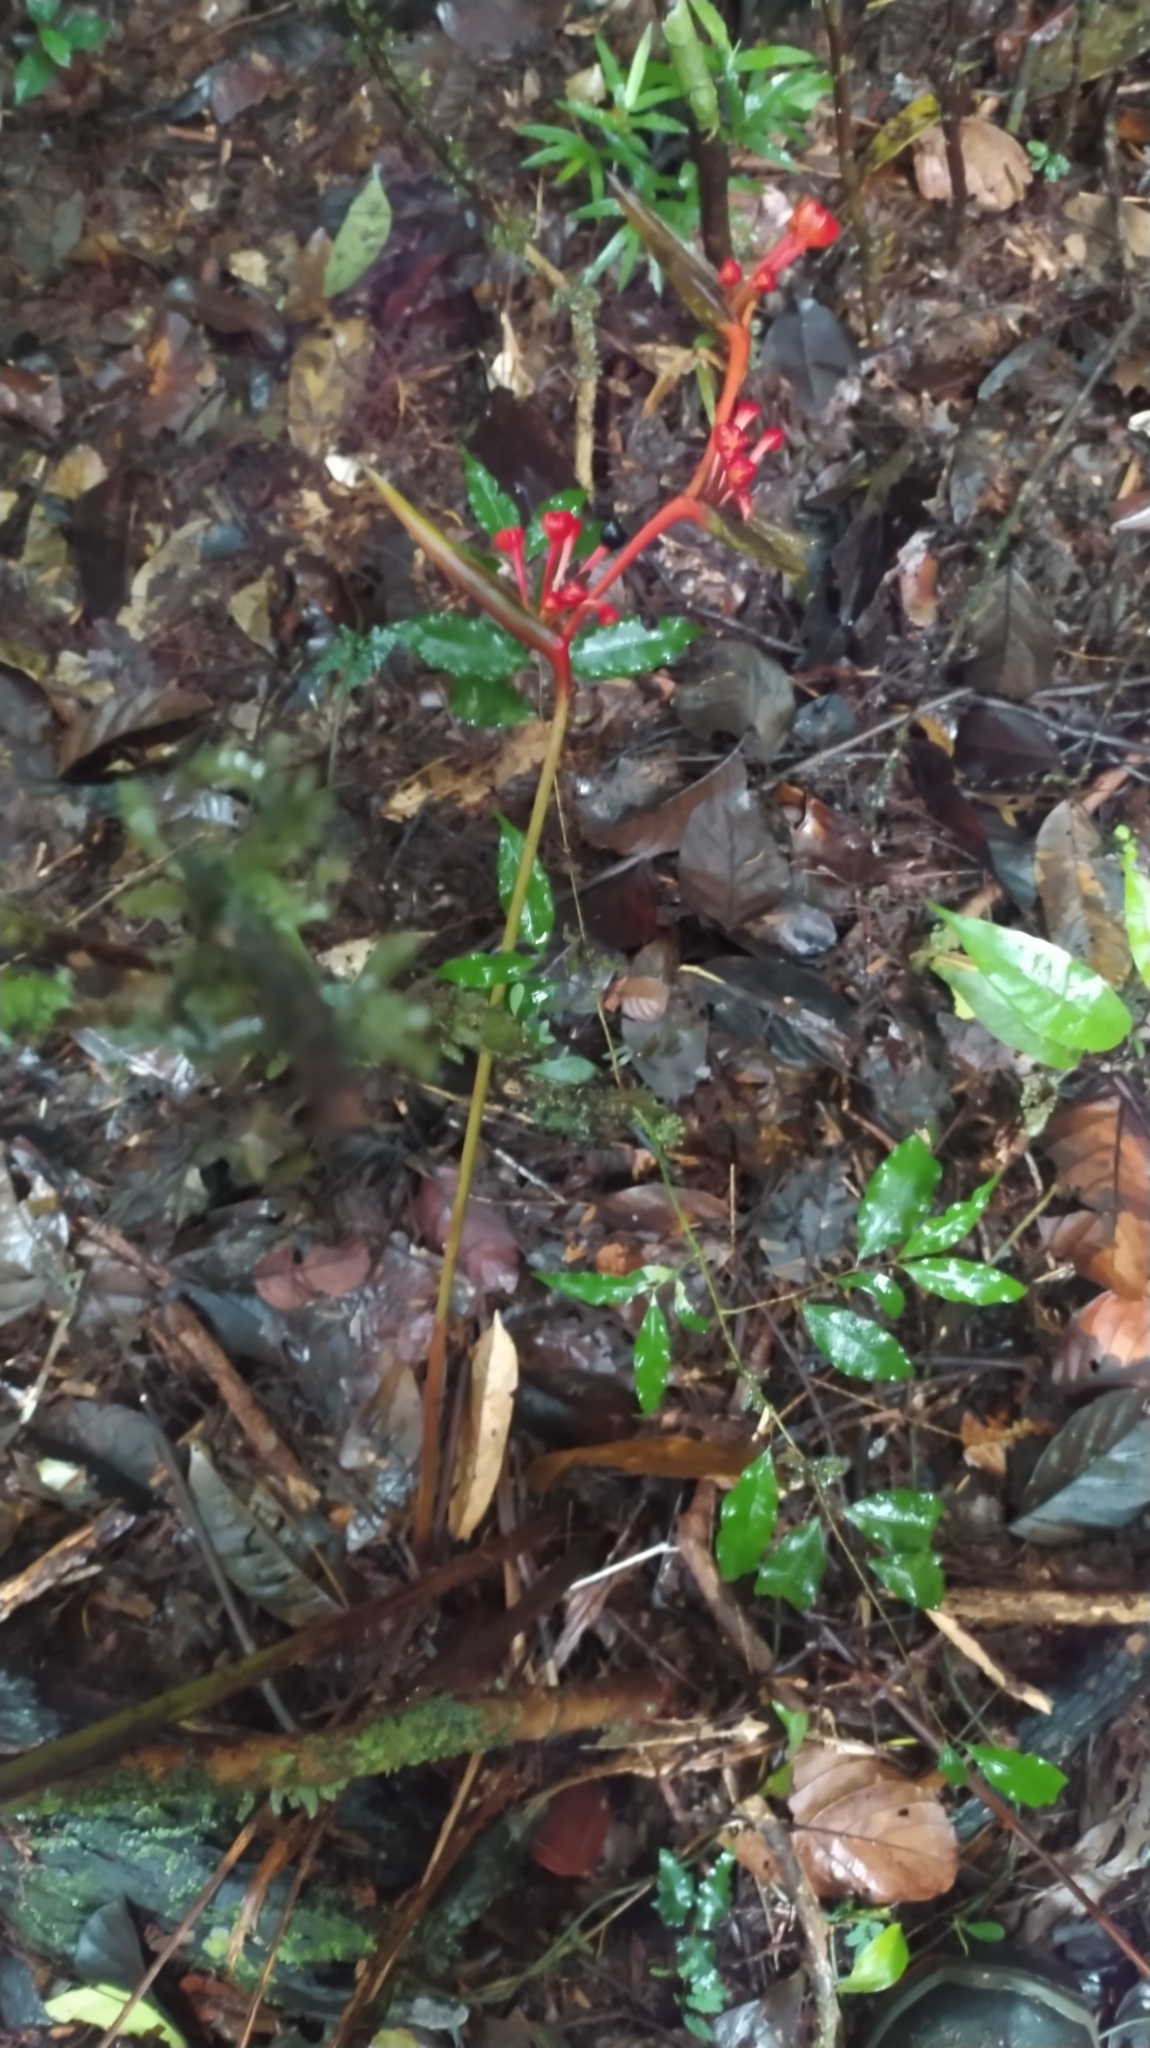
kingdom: Plantae
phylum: Tracheophyta
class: Liliopsida
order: Zingiberales
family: Heliconiaceae
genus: Heliconia
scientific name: Heliconia richardiana
